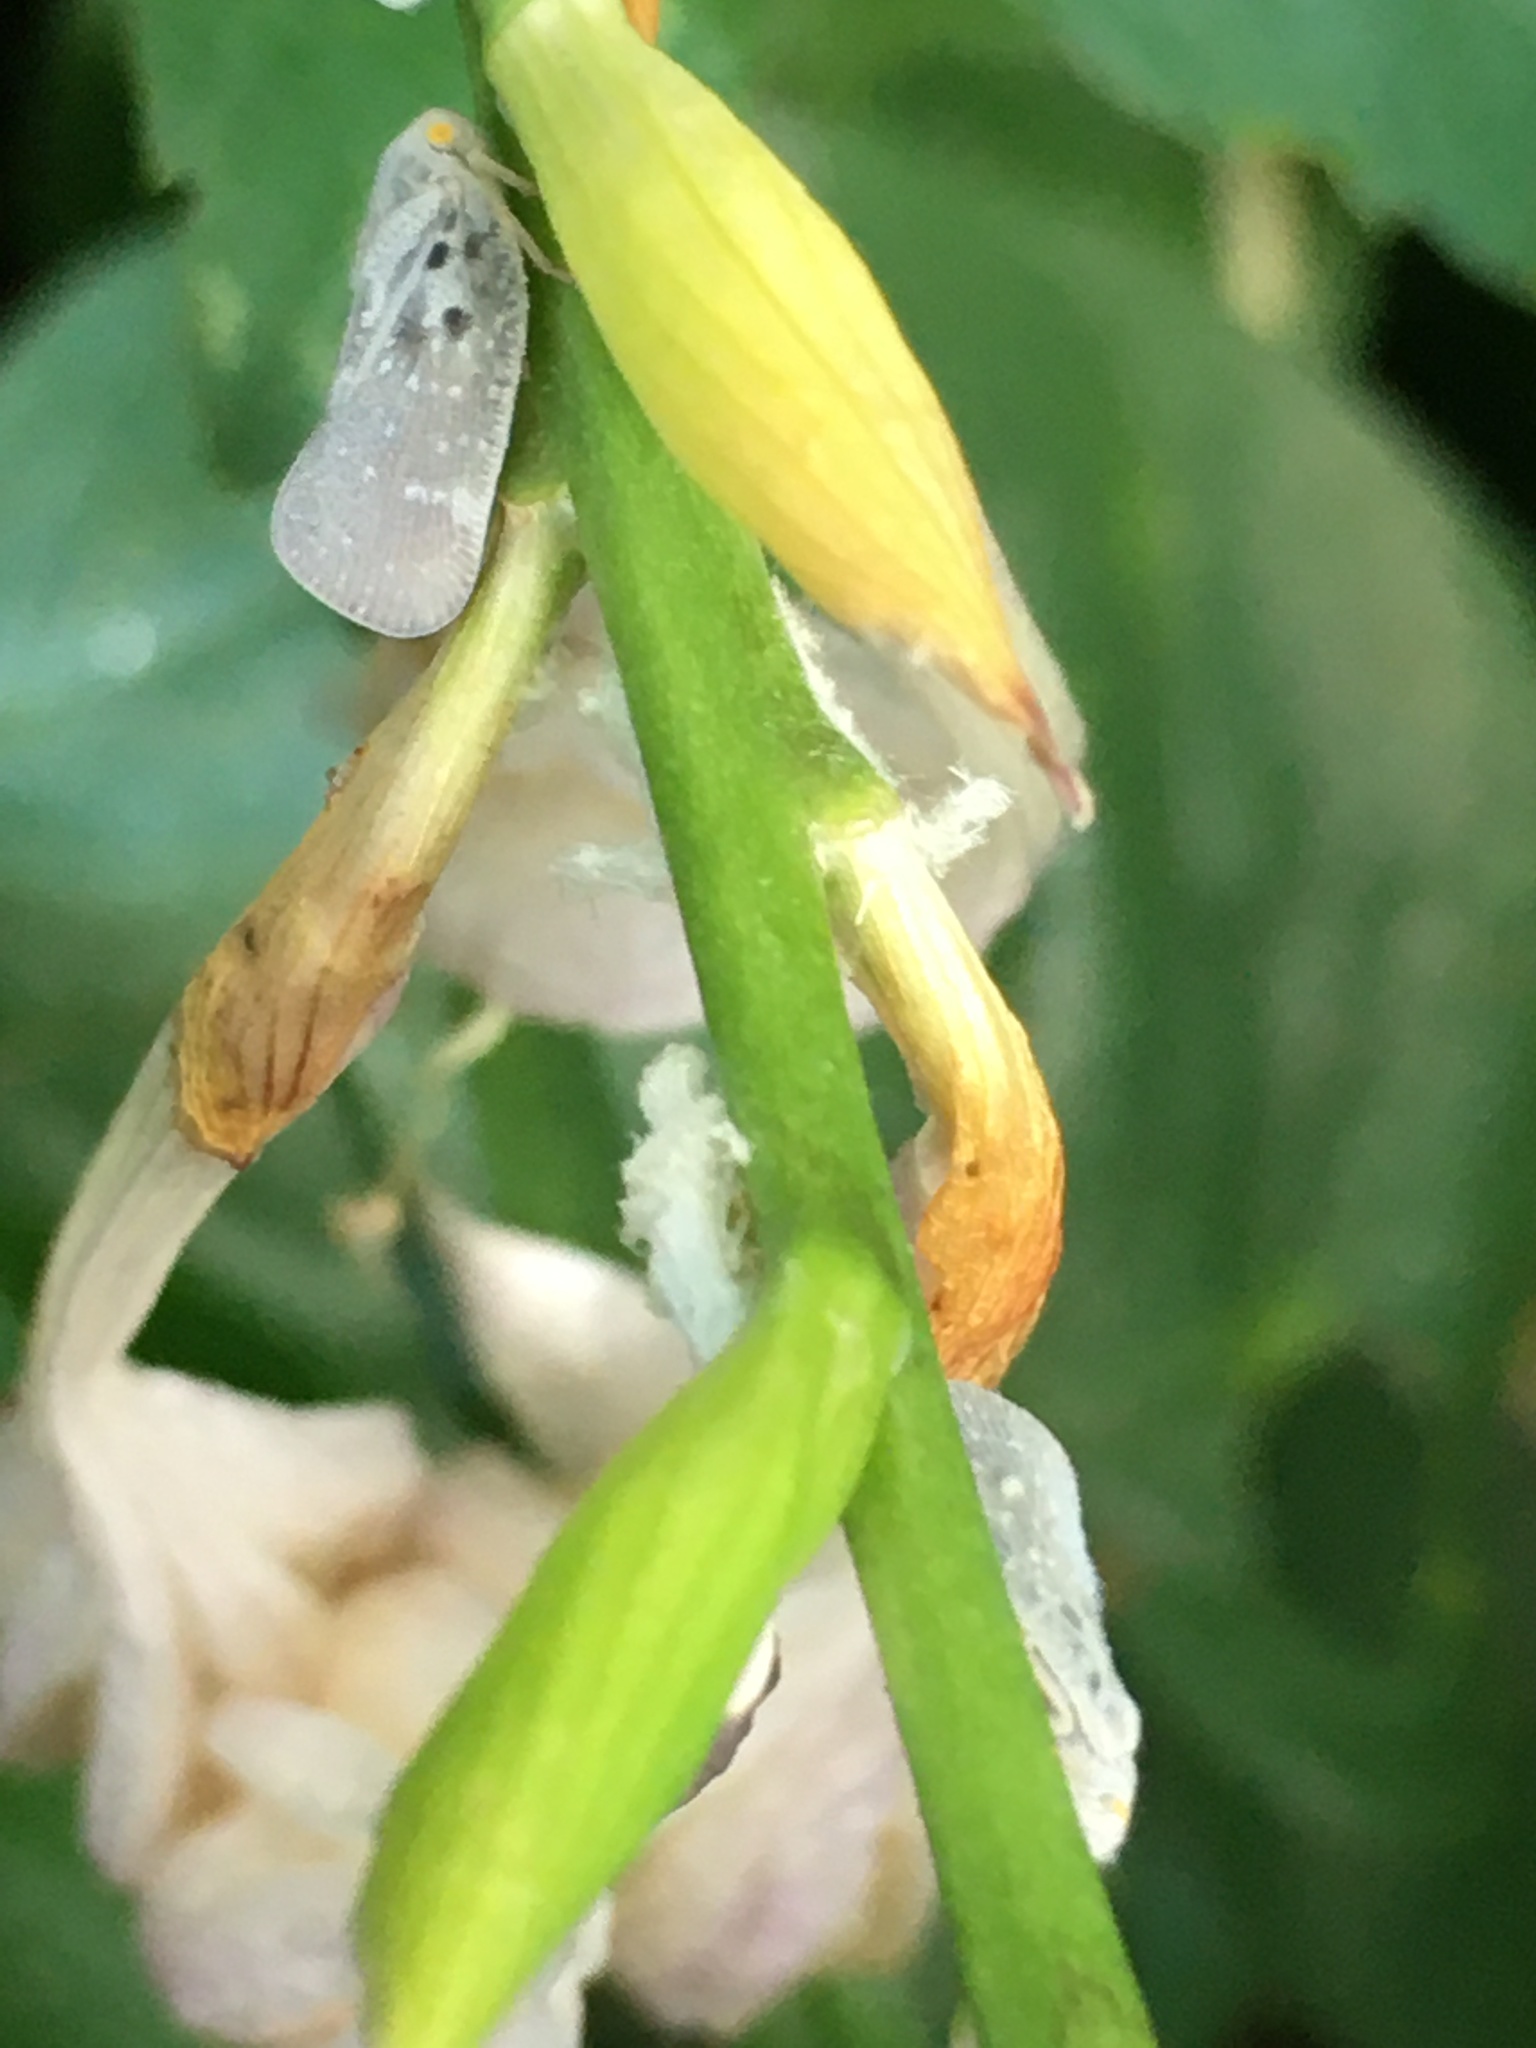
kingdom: Animalia
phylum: Arthropoda
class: Insecta
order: Hemiptera
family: Flatidae
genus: Metcalfa
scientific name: Metcalfa pruinosa
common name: Citrus flatid planthopper
